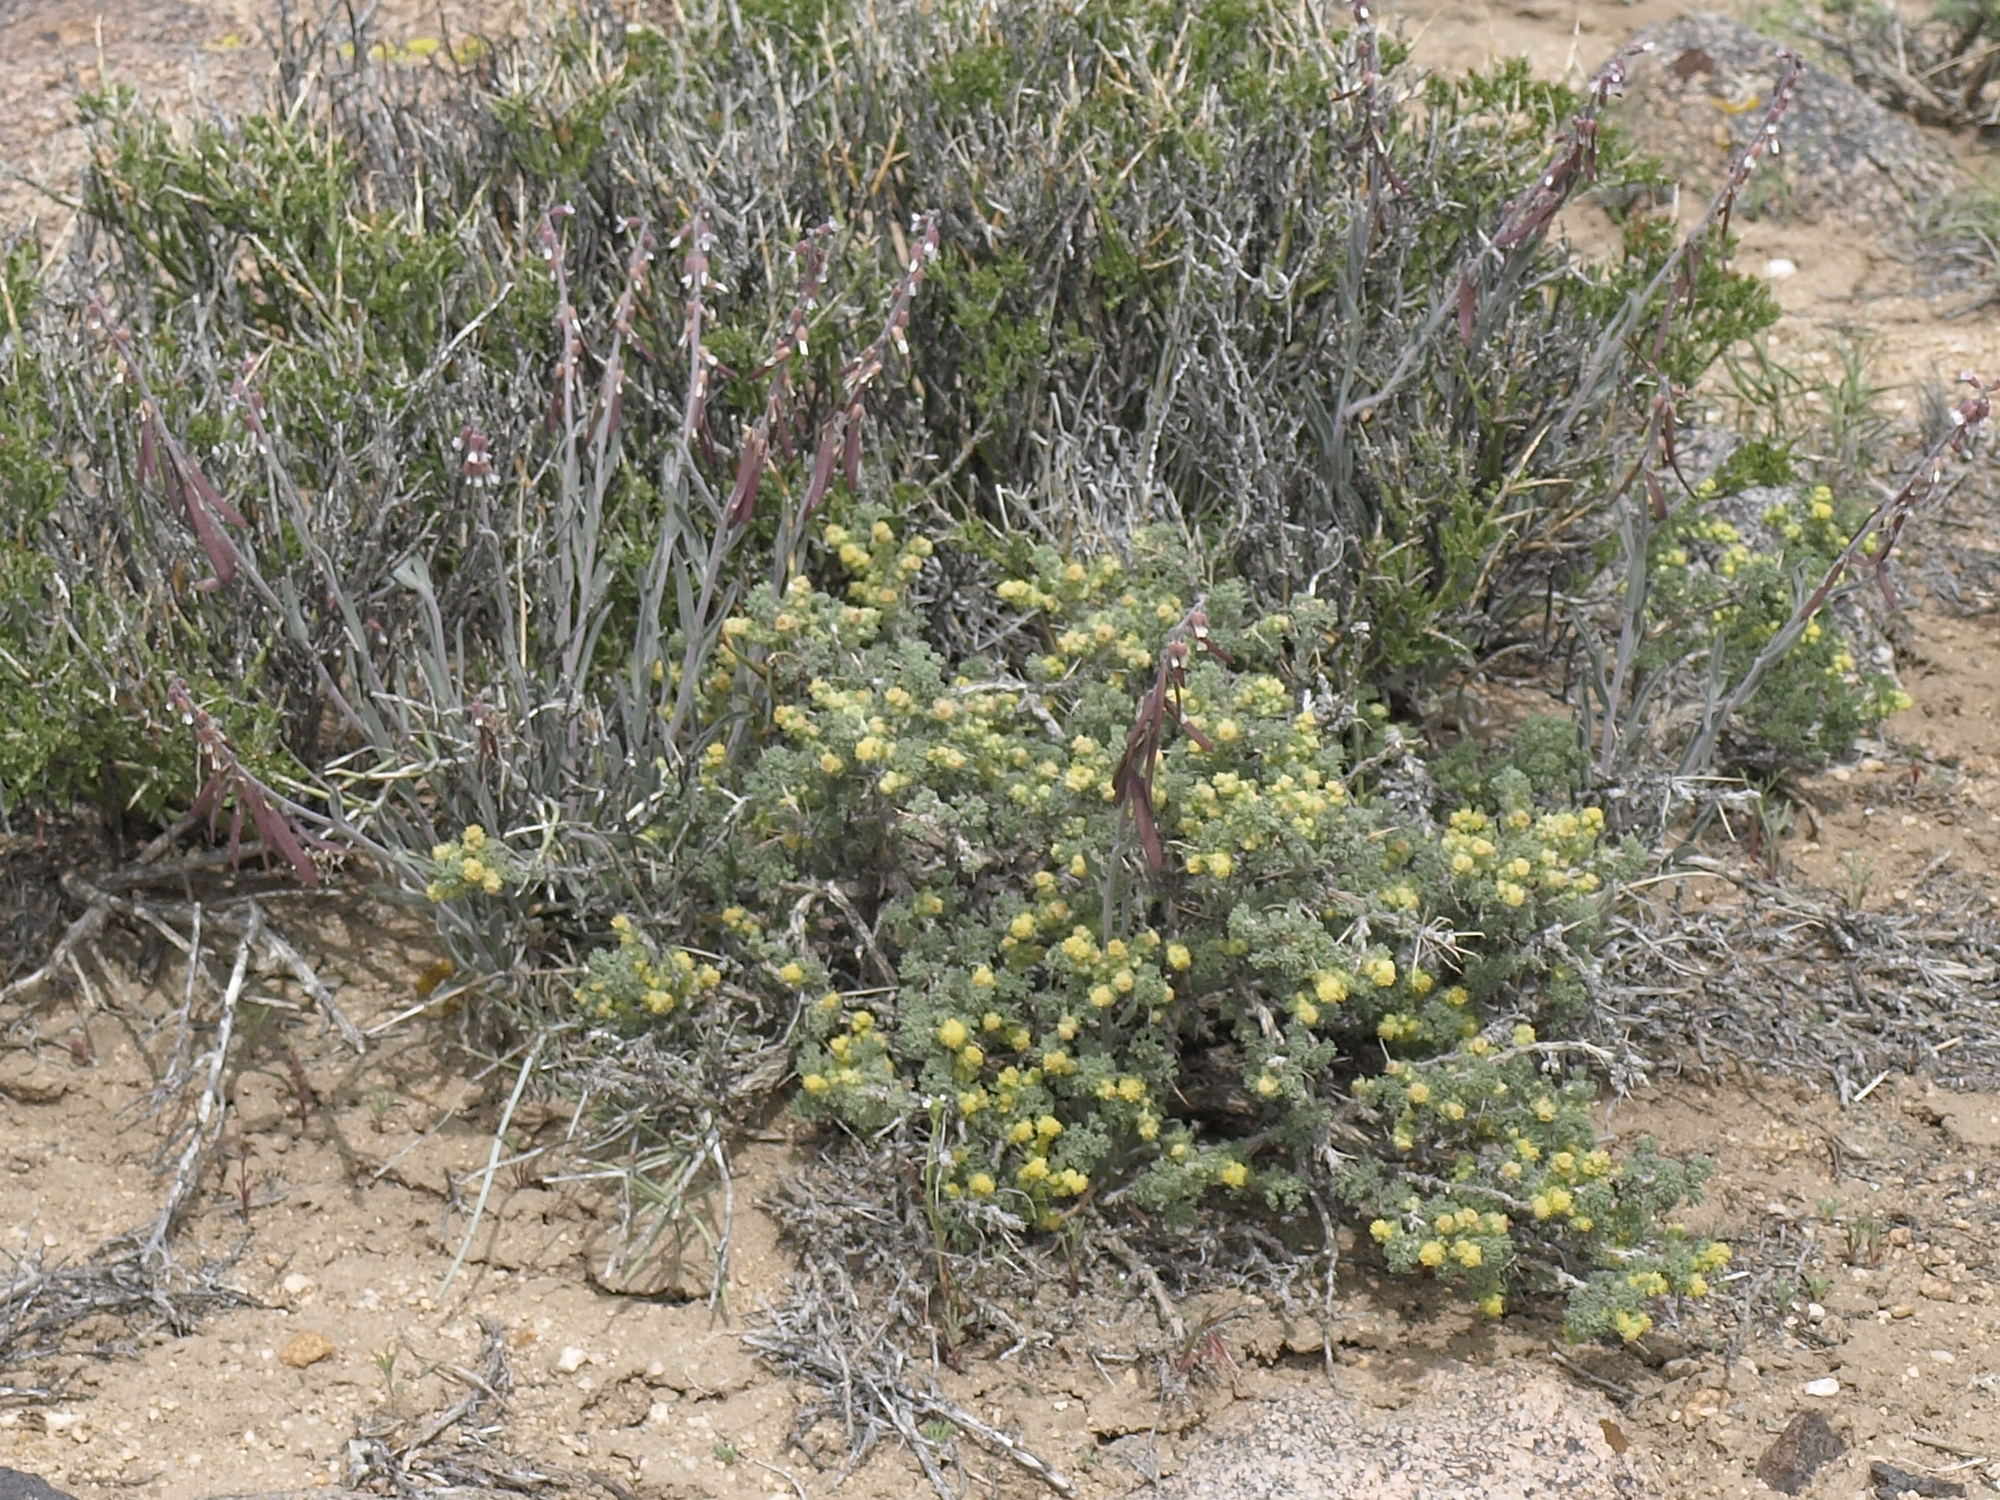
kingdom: Plantae
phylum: Tracheophyta
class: Magnoliopsida
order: Asterales
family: Asteraceae
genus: Artemisia
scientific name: Artemisia spinescens
